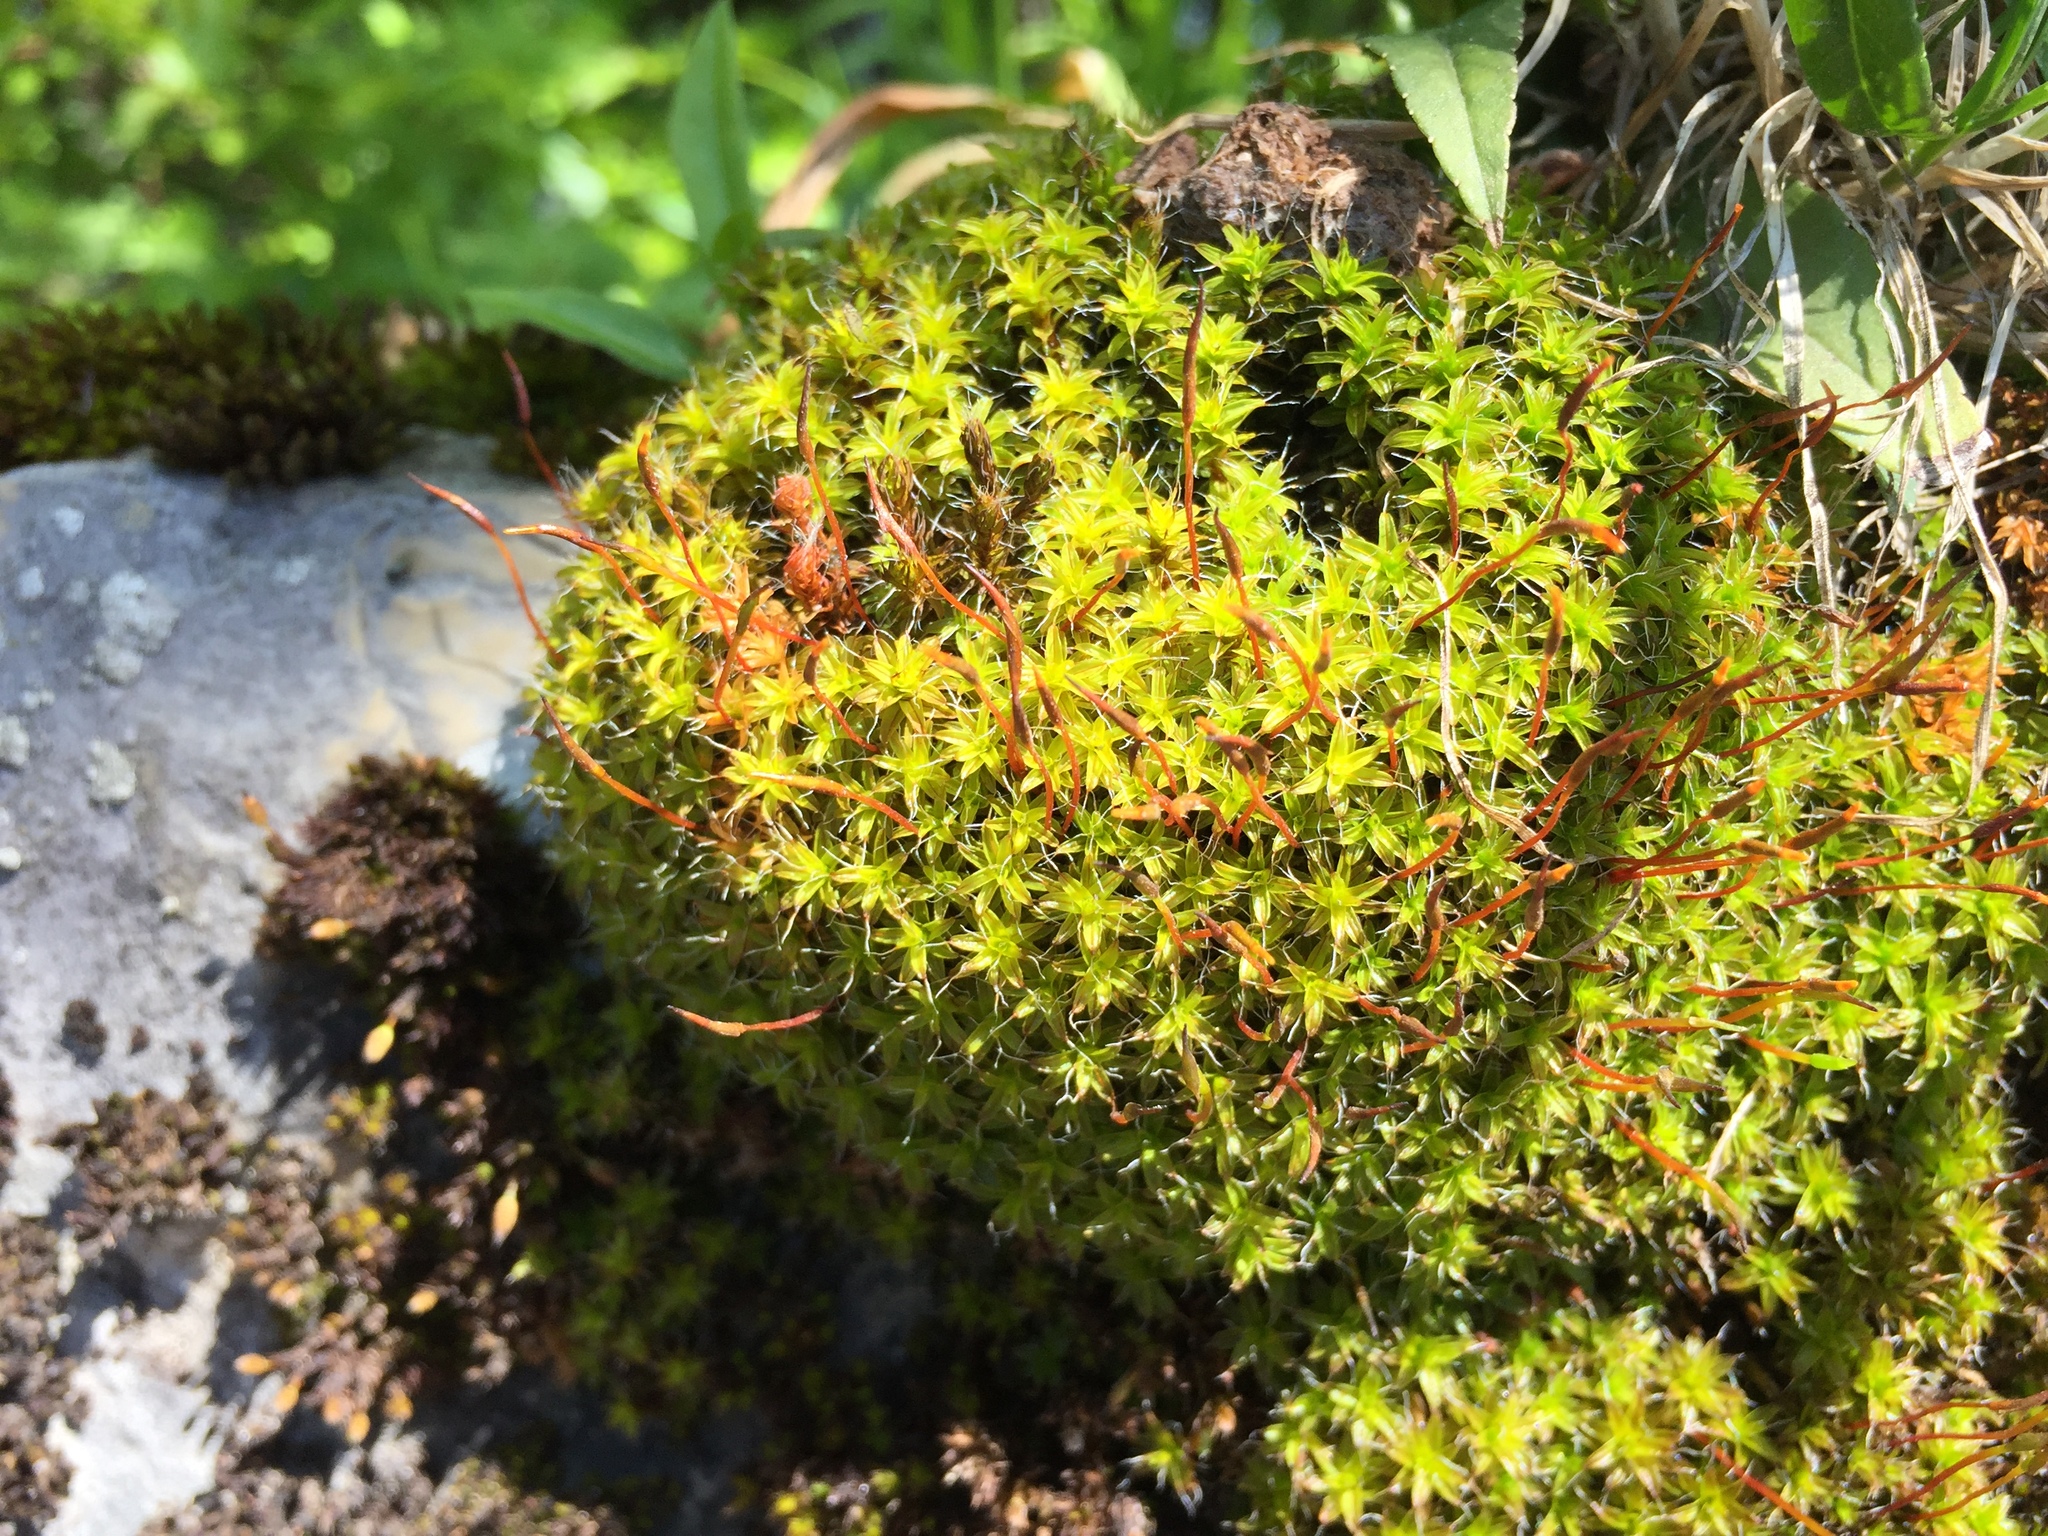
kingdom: Plantae
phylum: Bryophyta
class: Bryopsida
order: Pottiales
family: Pottiaceae
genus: Syntrichia
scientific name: Syntrichia ruralis
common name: Sidewalk screw moss
